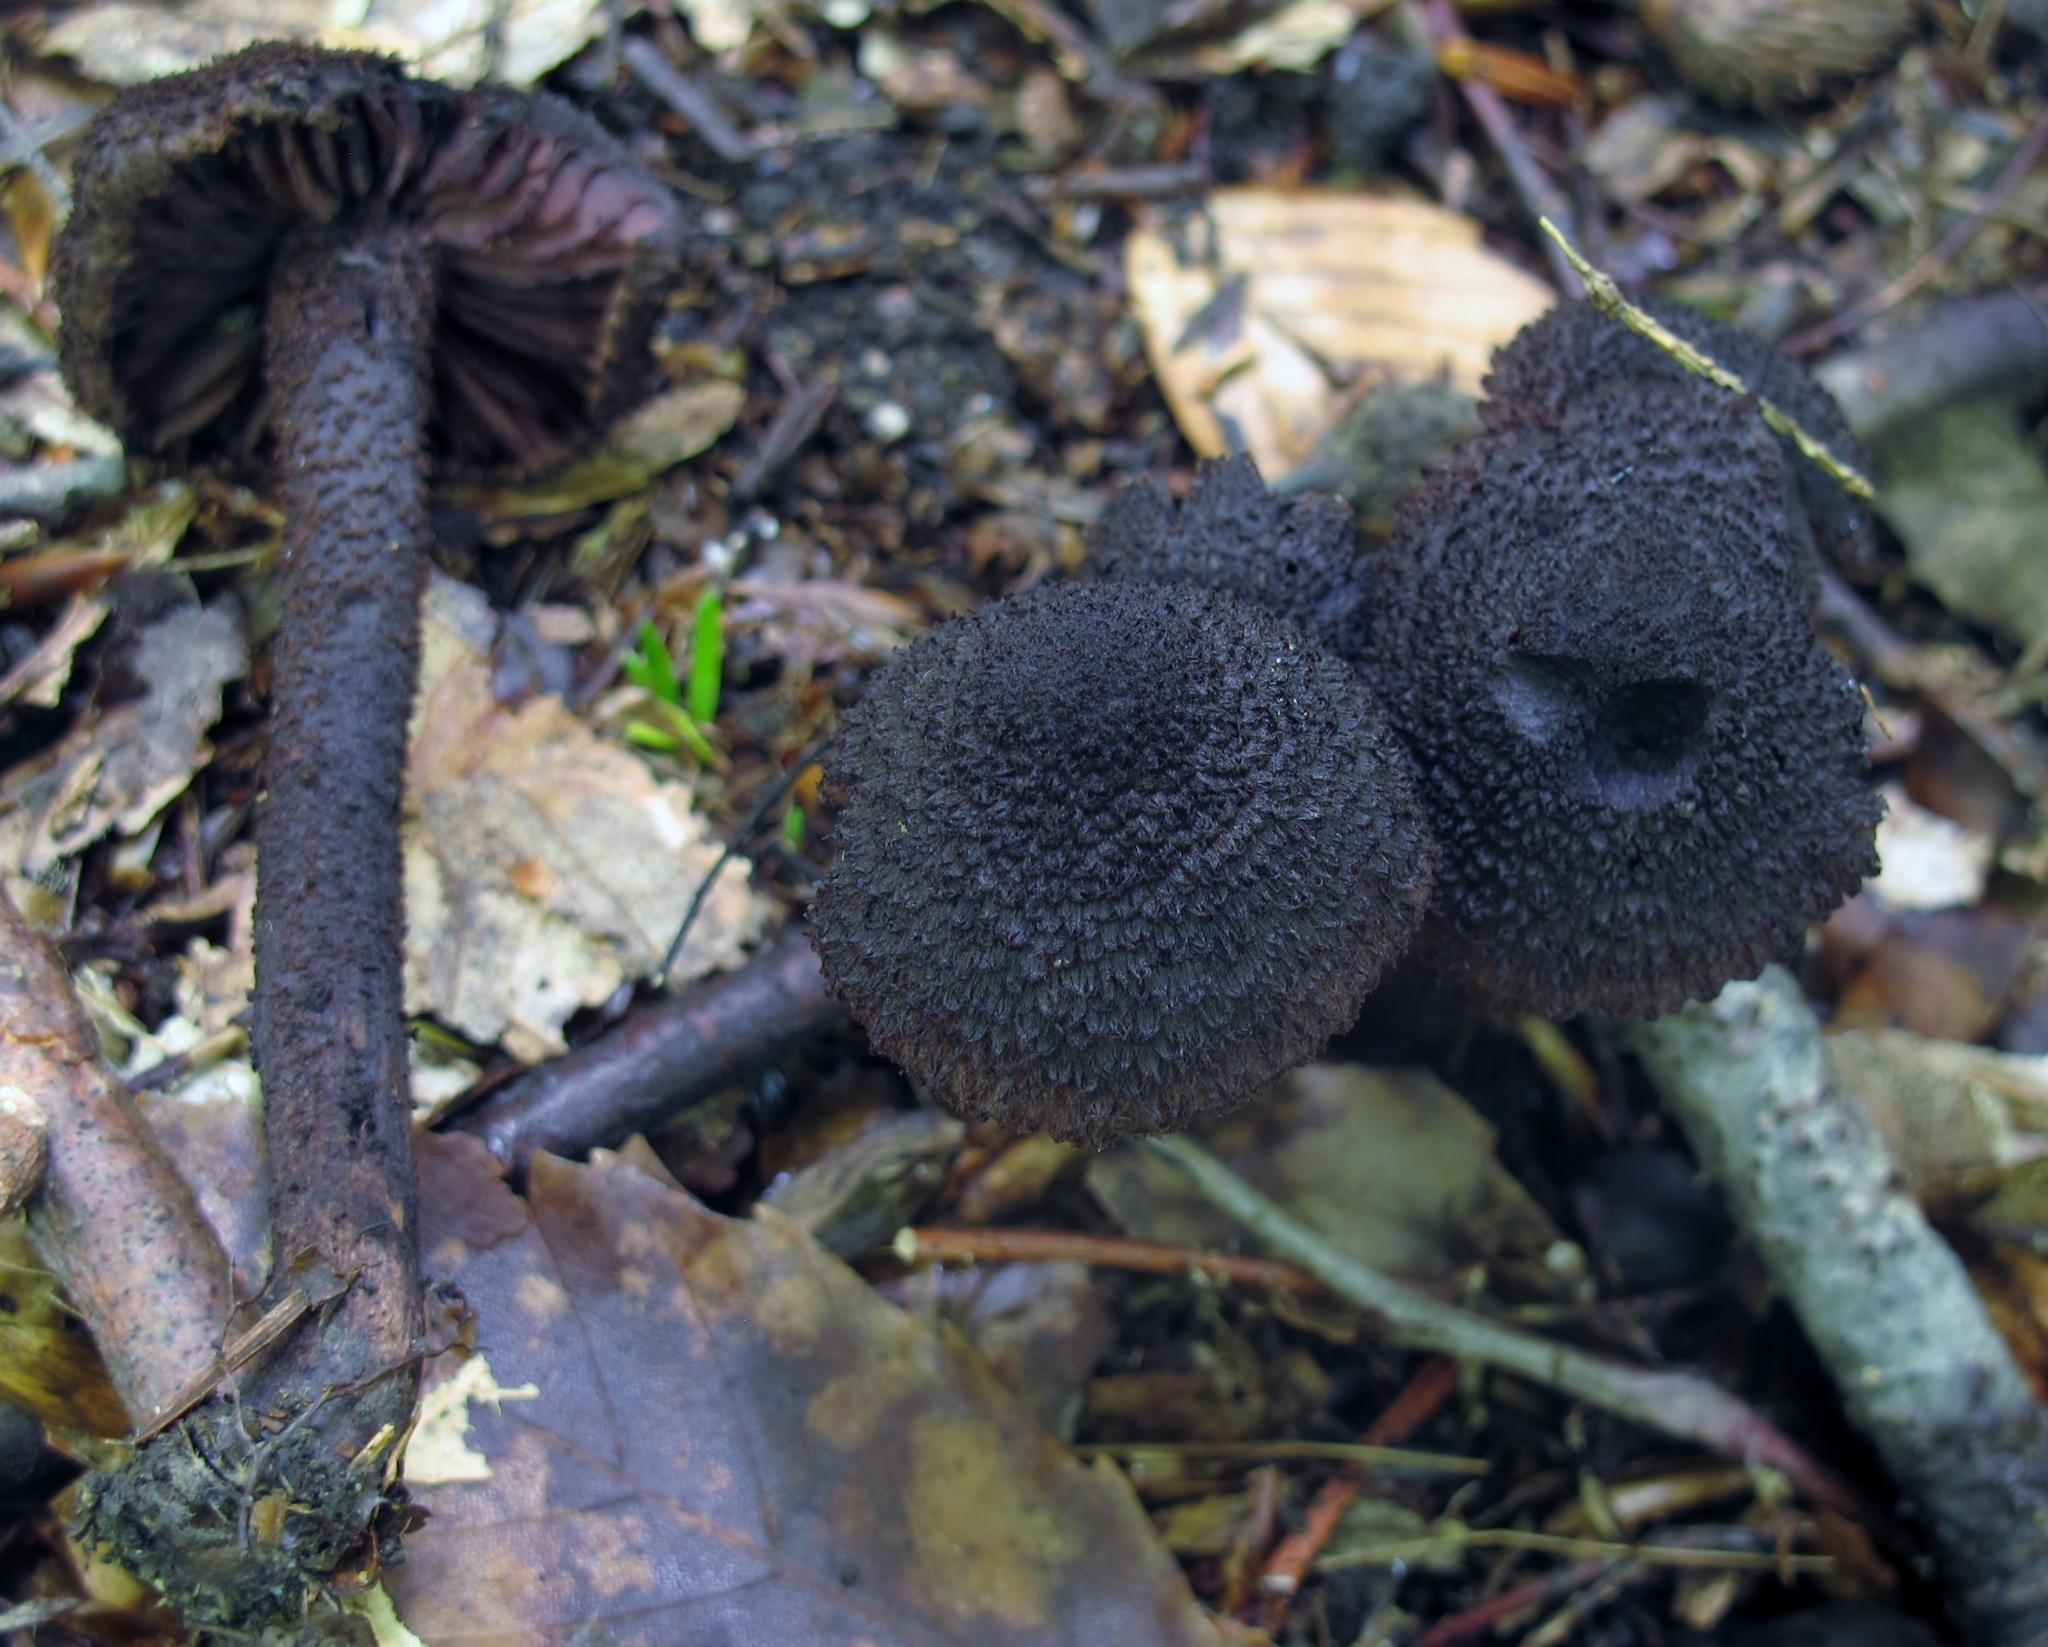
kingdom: Fungi
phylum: Basidiomycota
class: Agaricomycetes
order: Agaricales
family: Inocybaceae
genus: Inocybe
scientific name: Inocybe tahquamenonensis
